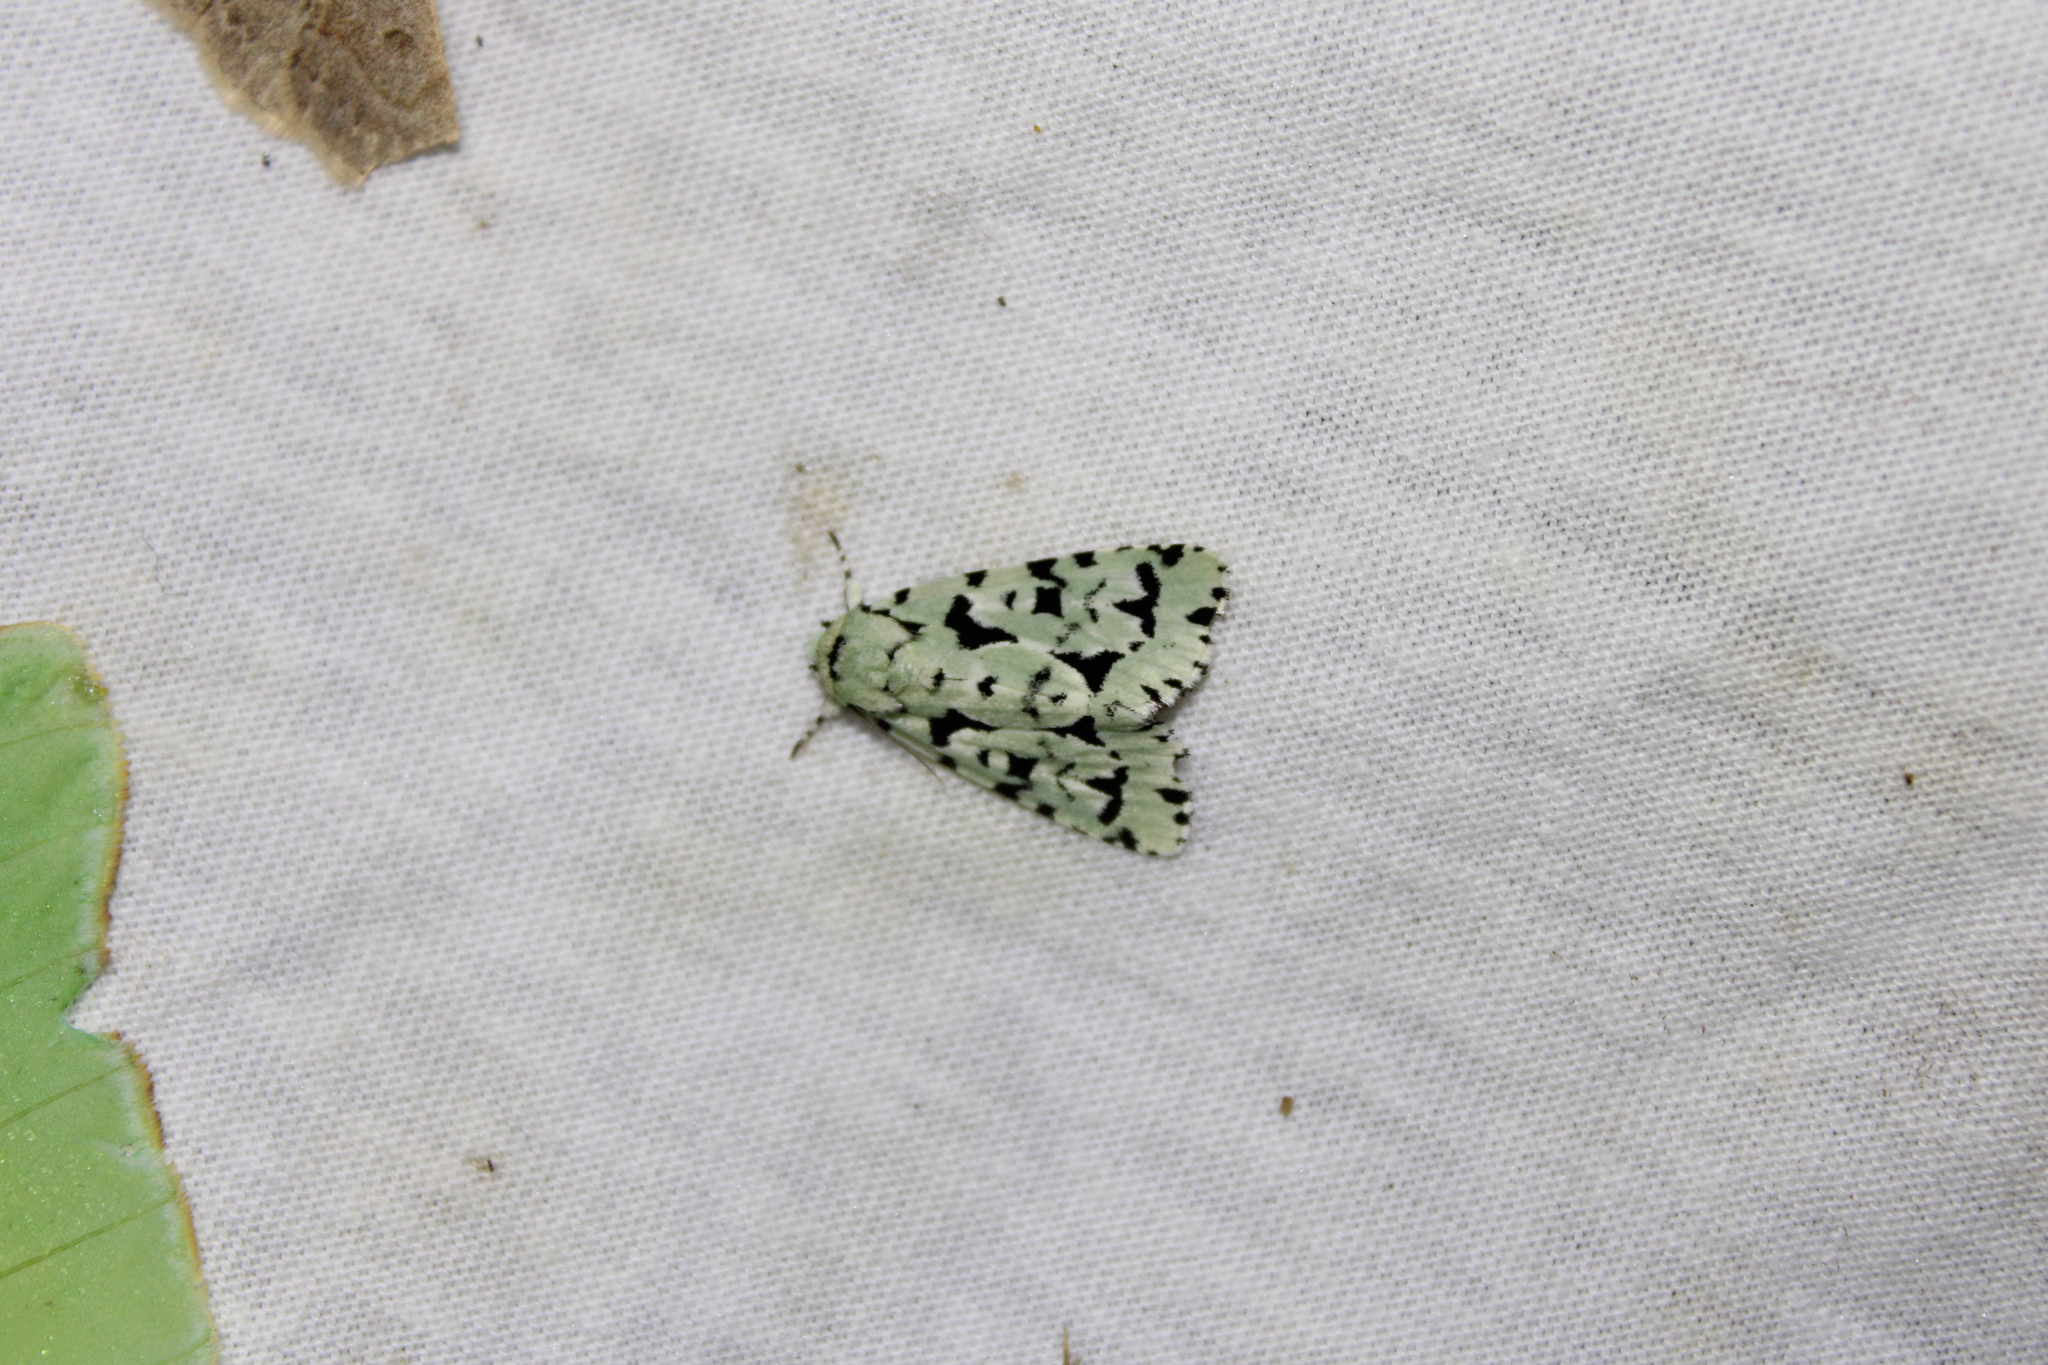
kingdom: Animalia
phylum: Arthropoda
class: Insecta
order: Lepidoptera
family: Noctuidae
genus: Acronicta
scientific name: Acronicta fallax
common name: Green marvel
